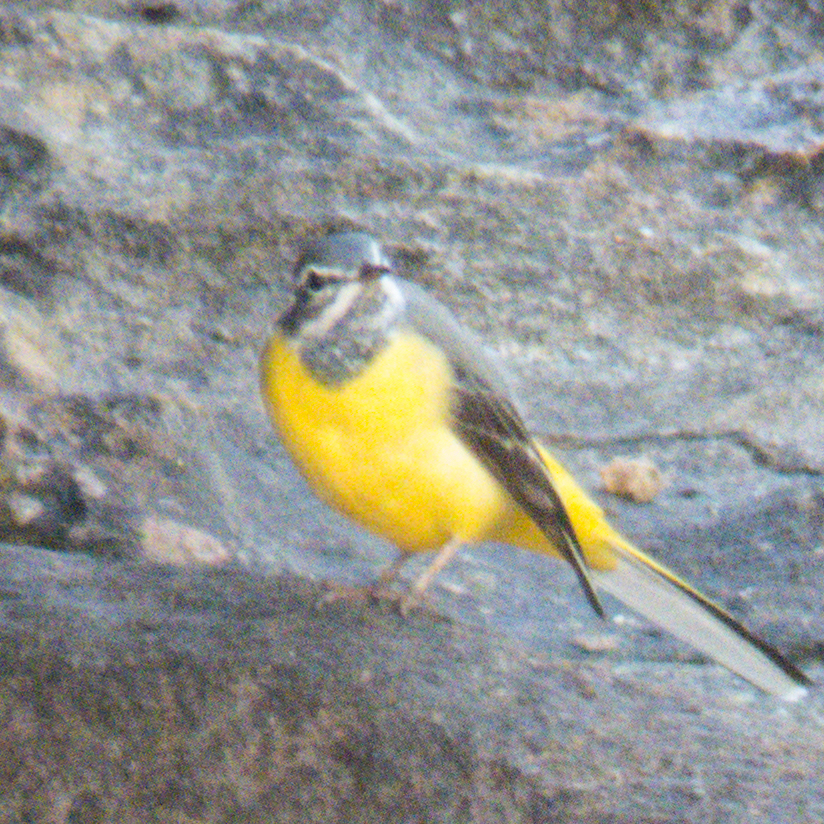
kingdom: Animalia
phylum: Chordata
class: Aves
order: Passeriformes
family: Motacillidae
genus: Motacilla
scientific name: Motacilla cinerea
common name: Grey wagtail
